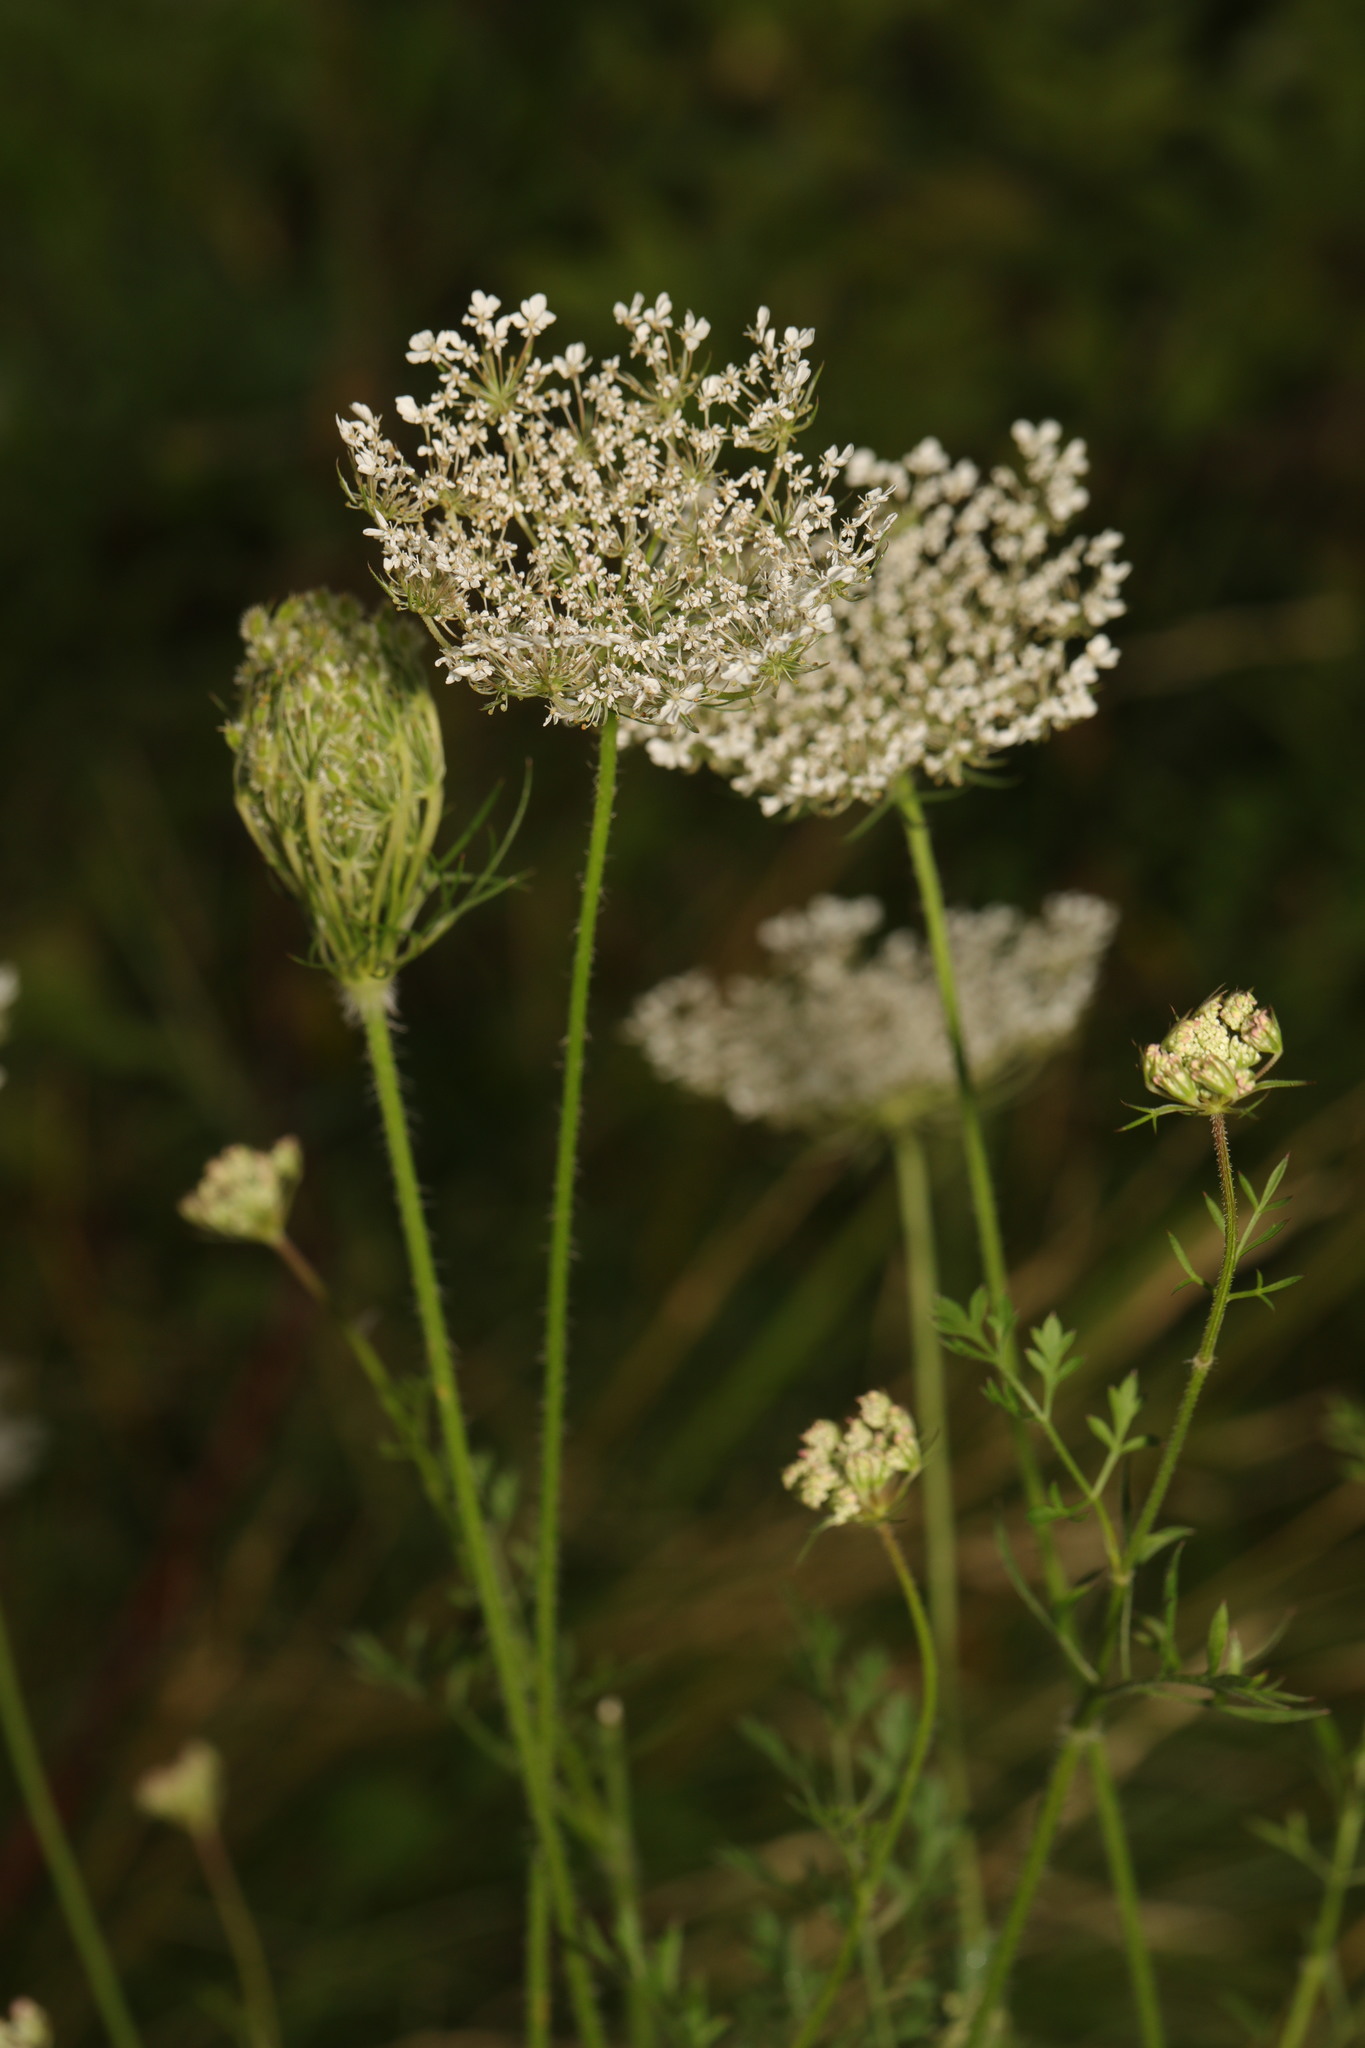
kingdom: Plantae
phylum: Tracheophyta
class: Magnoliopsida
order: Apiales
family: Apiaceae
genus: Daucus
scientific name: Daucus carota
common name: Wild carrot
